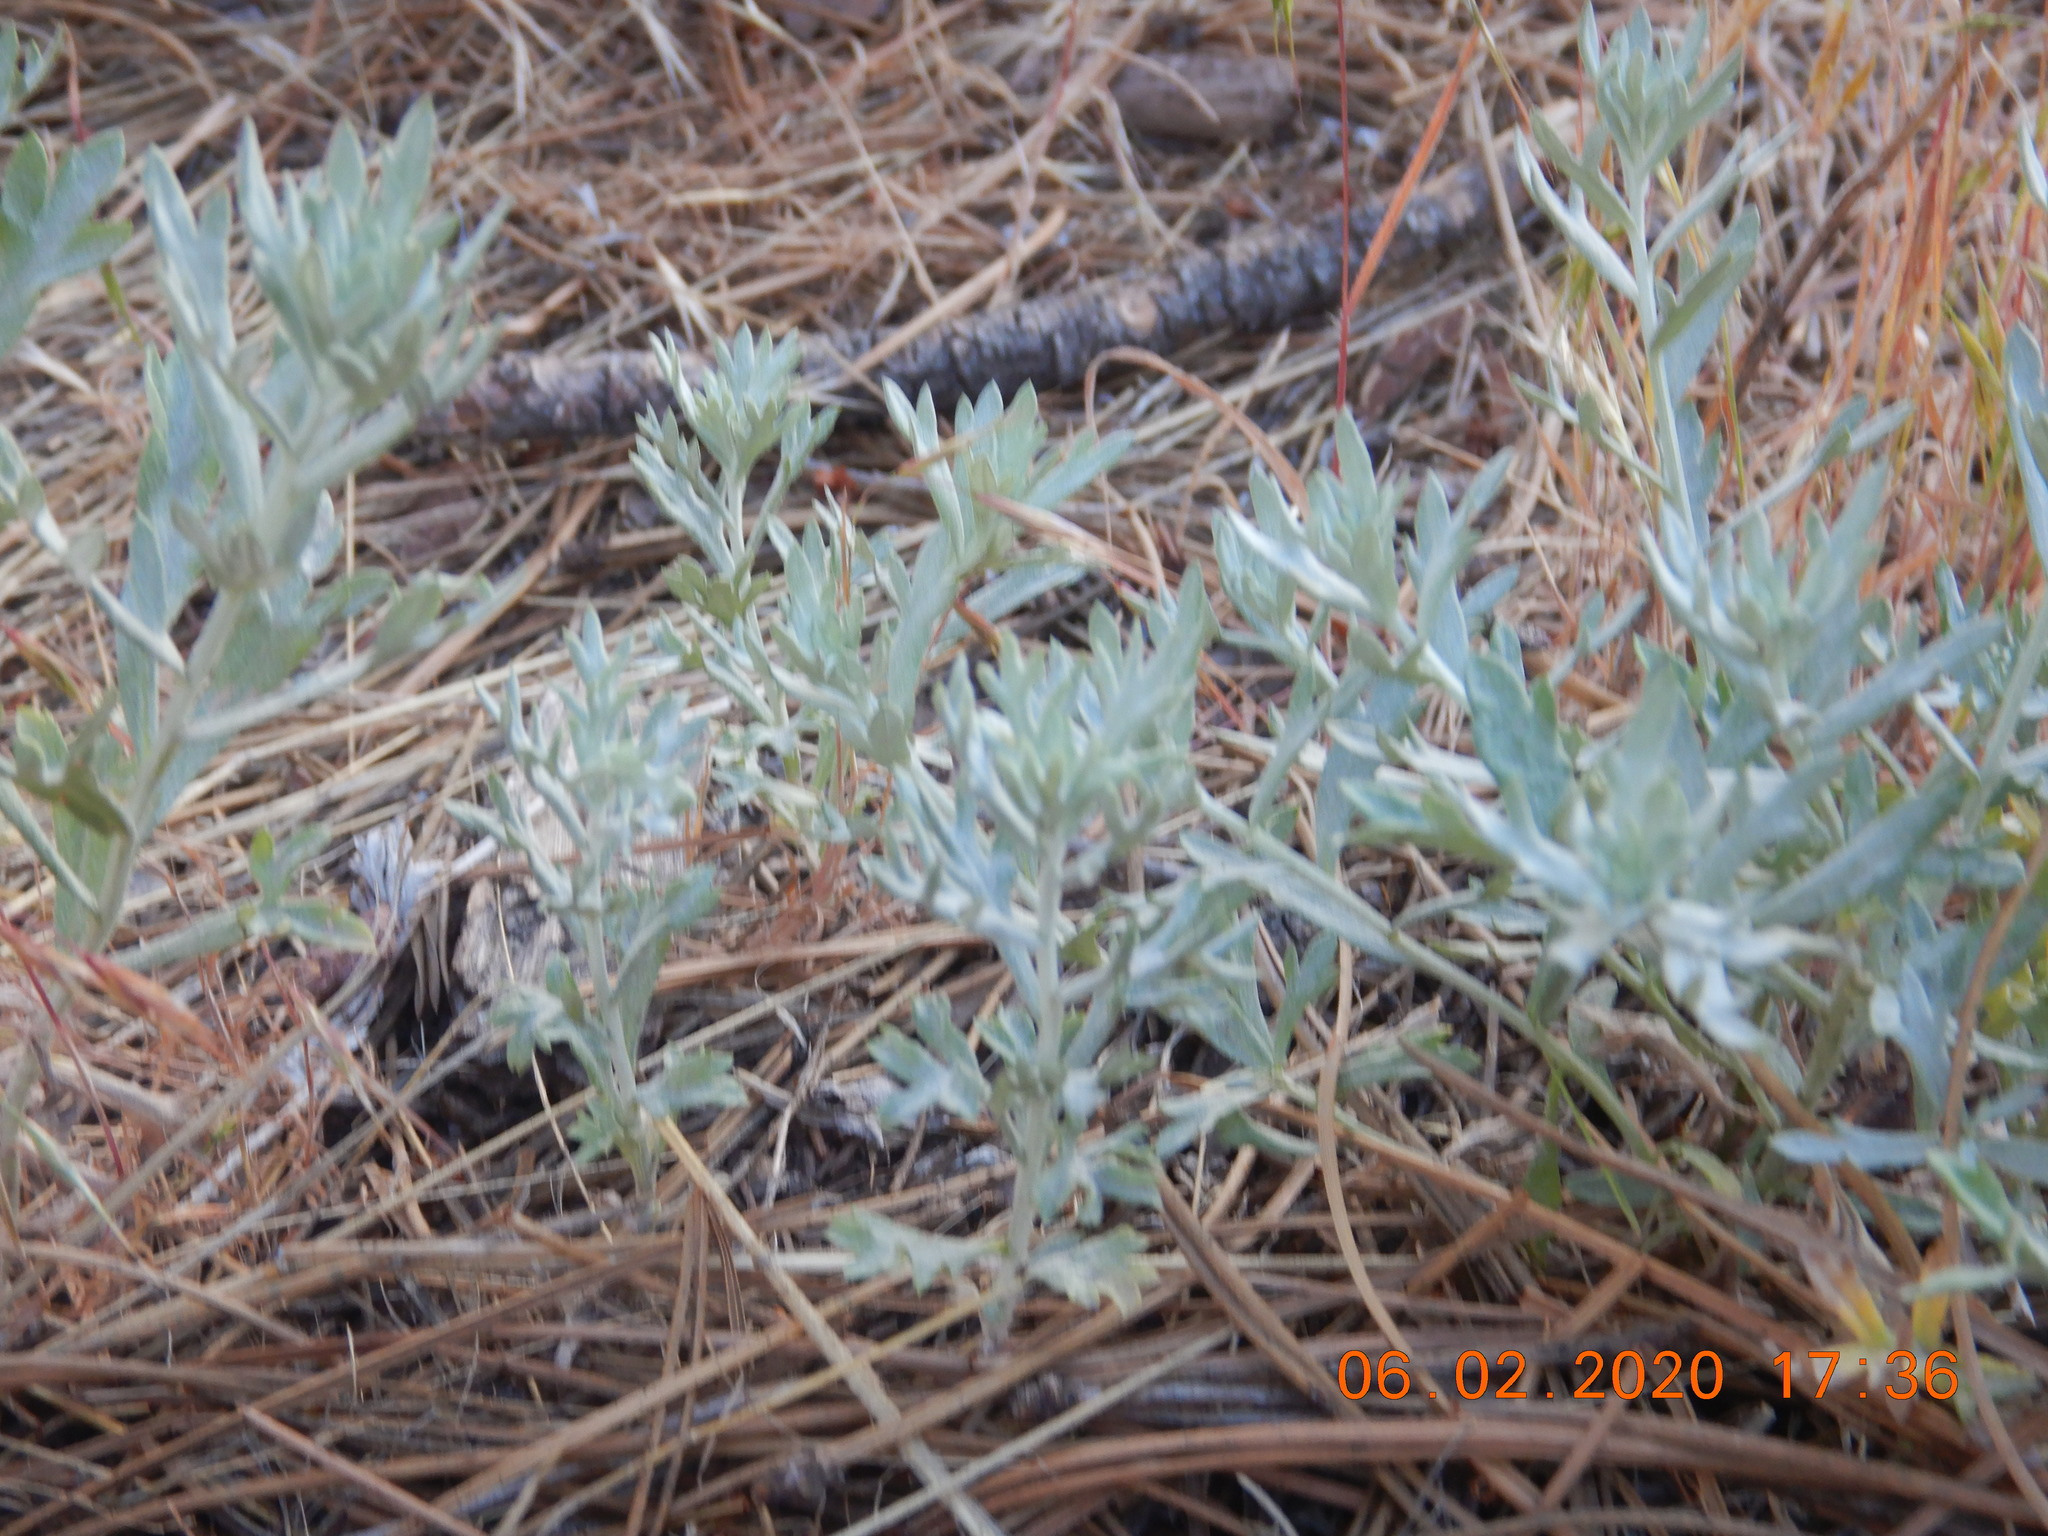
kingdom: Plantae
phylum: Tracheophyta
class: Magnoliopsida
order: Asterales
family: Asteraceae
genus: Artemisia
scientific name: Artemisia ludoviciana
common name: Western mugwort
